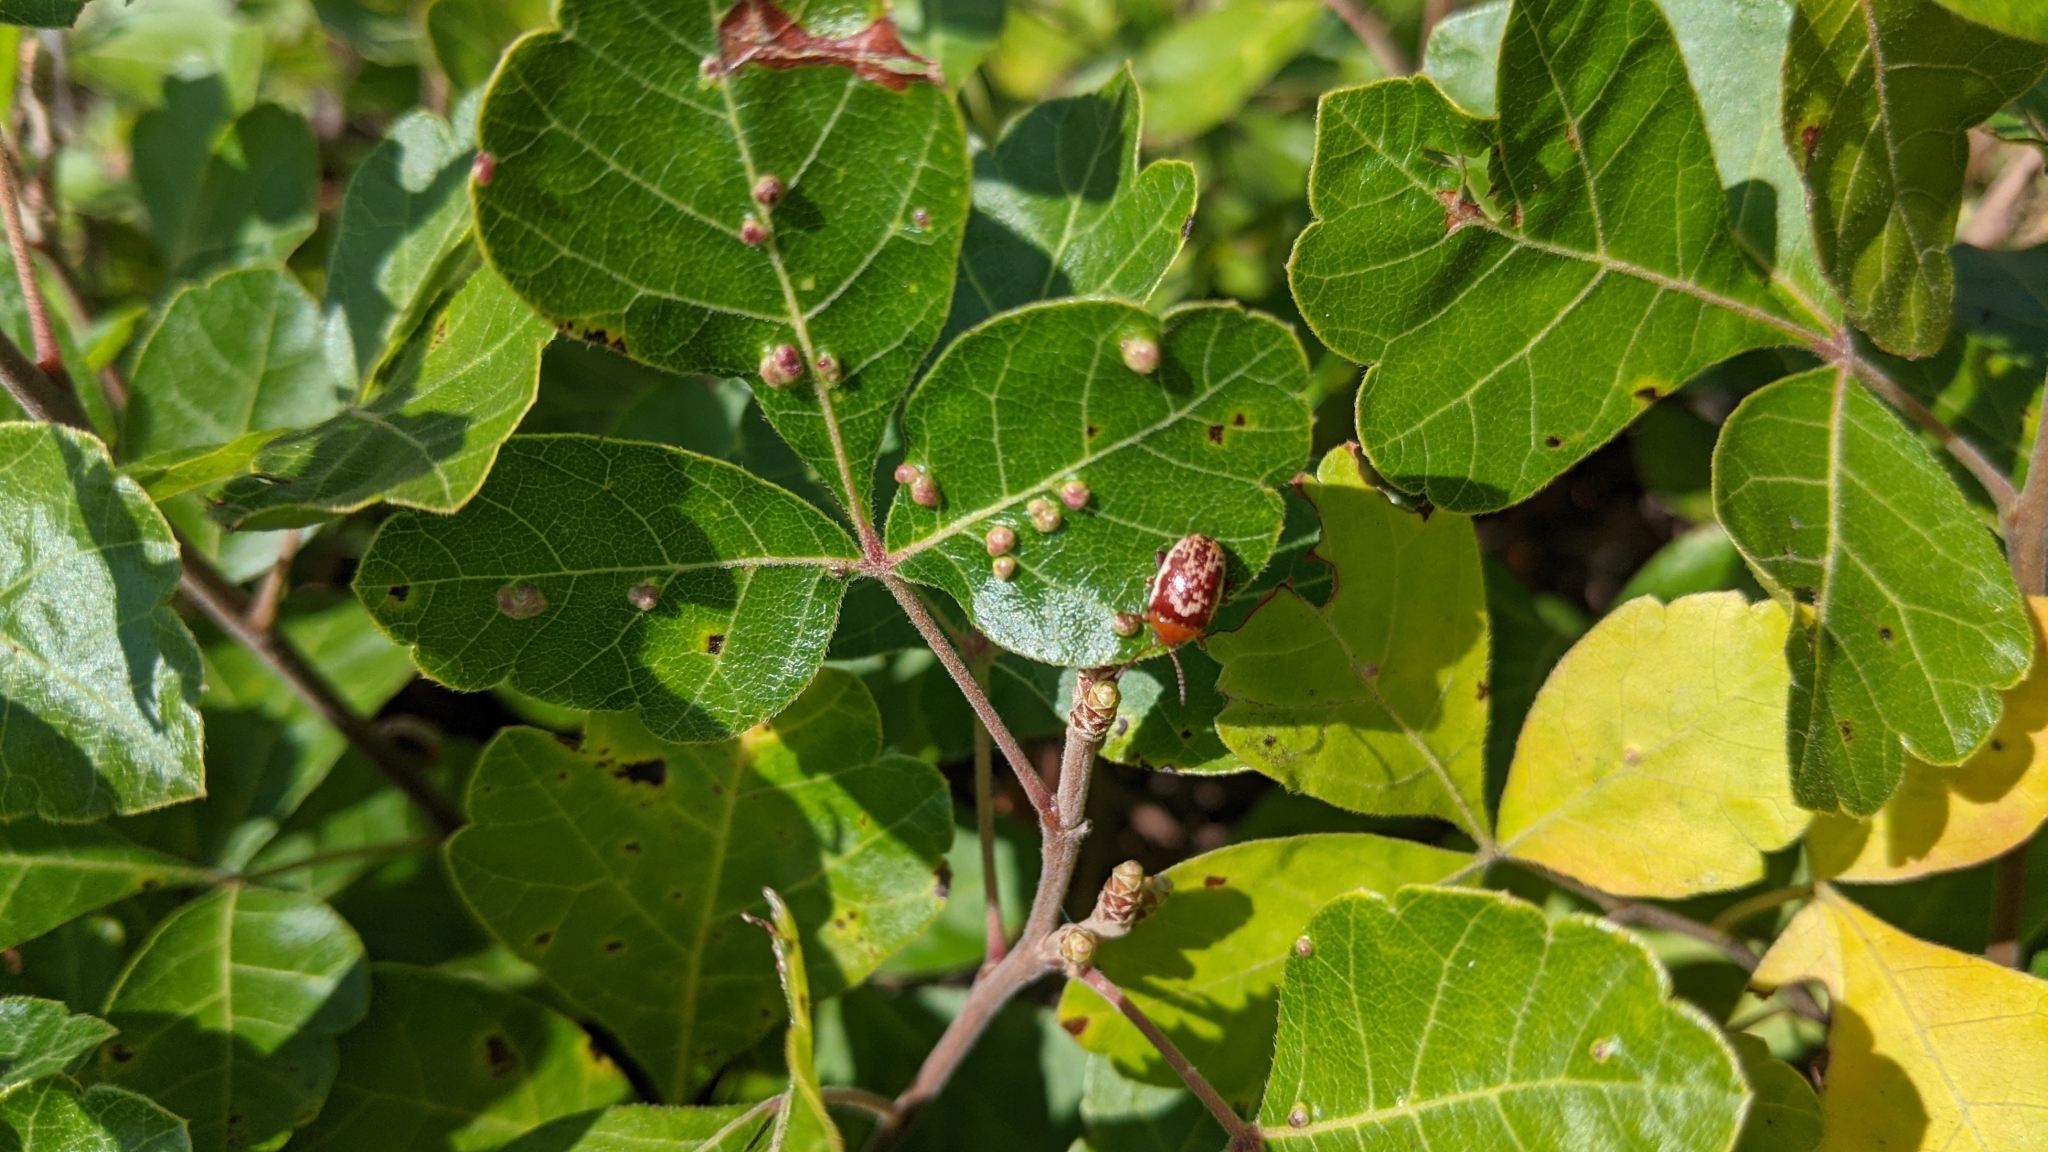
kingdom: Animalia
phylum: Arthropoda
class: Arachnida
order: Trombidiformes
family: Eriophyidae
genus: Aculops
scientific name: Aculops
